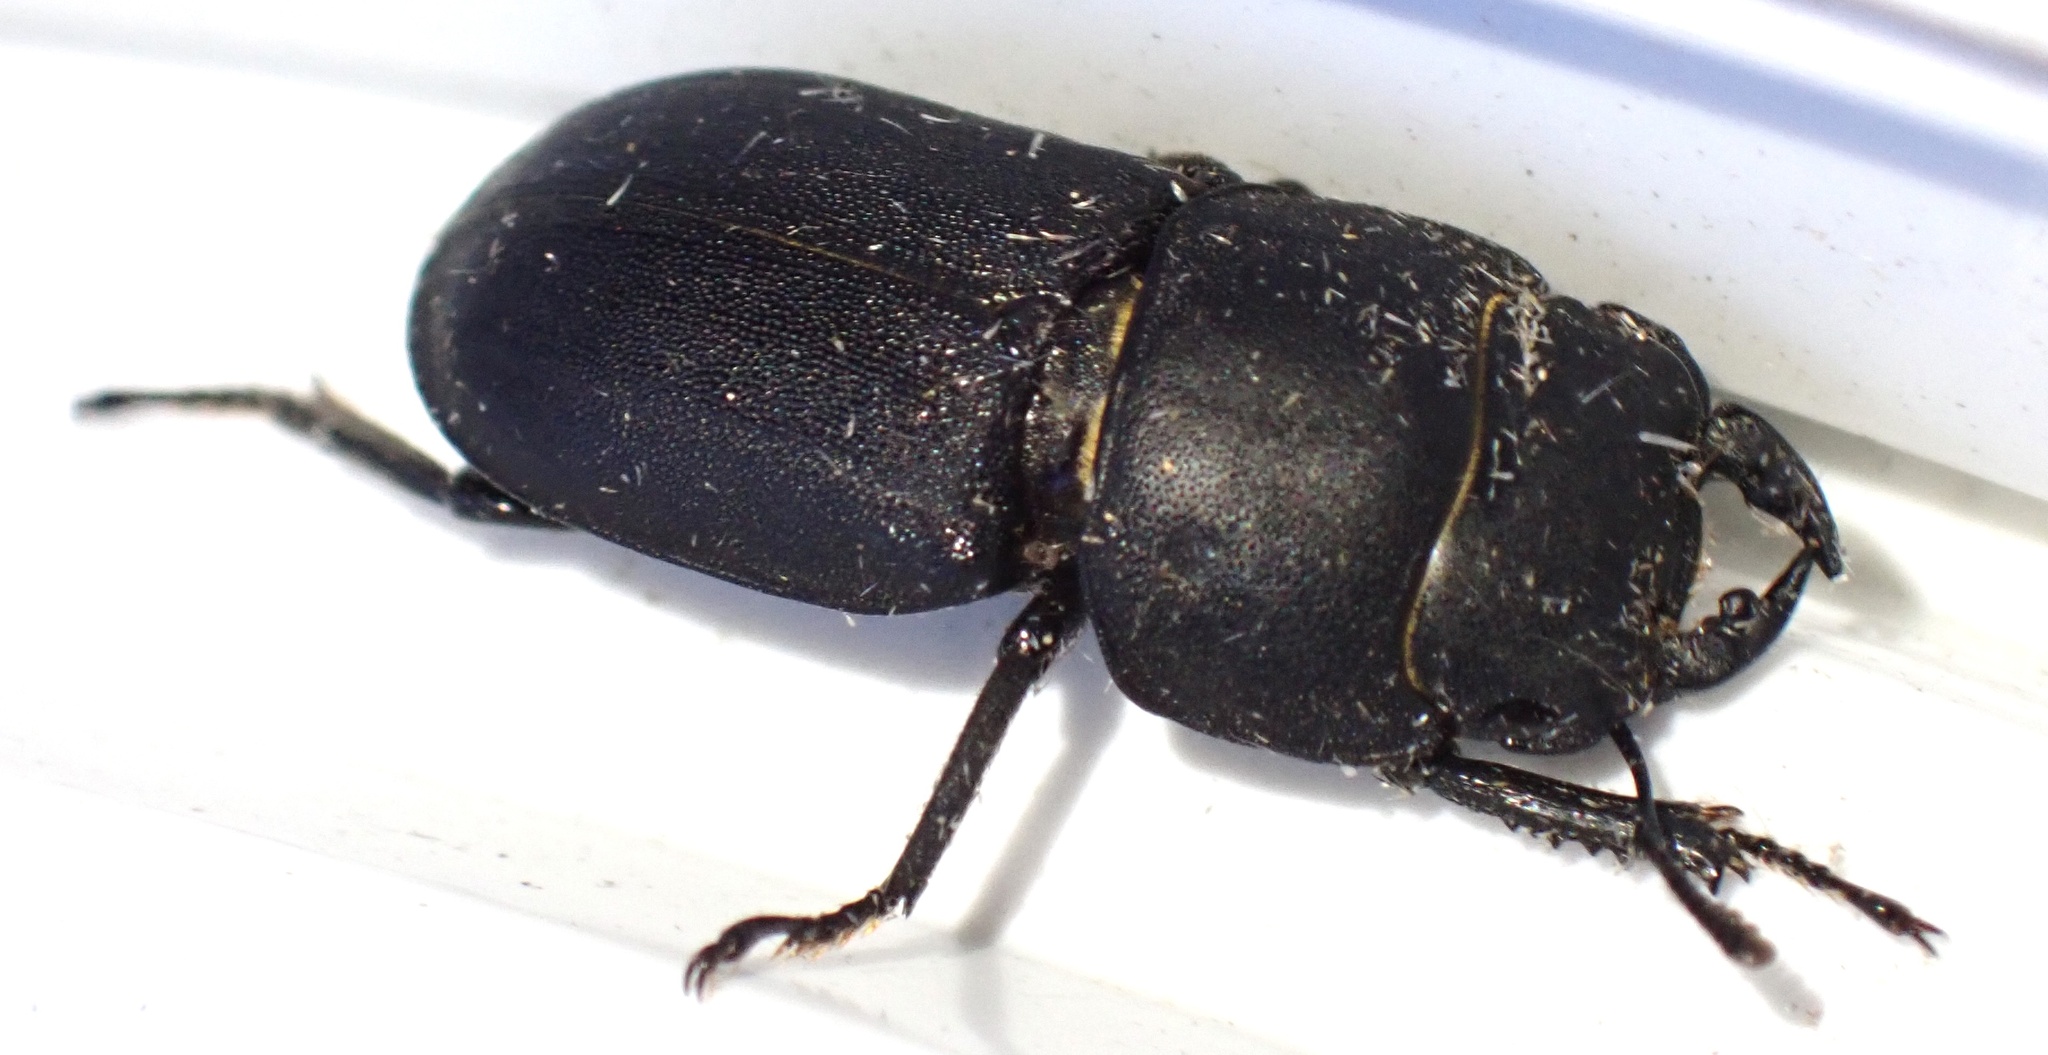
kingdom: Animalia
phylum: Arthropoda
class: Insecta
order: Coleoptera
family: Lucanidae
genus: Dorcus
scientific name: Dorcus parallelipipedus
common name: Lesser stag beetle
